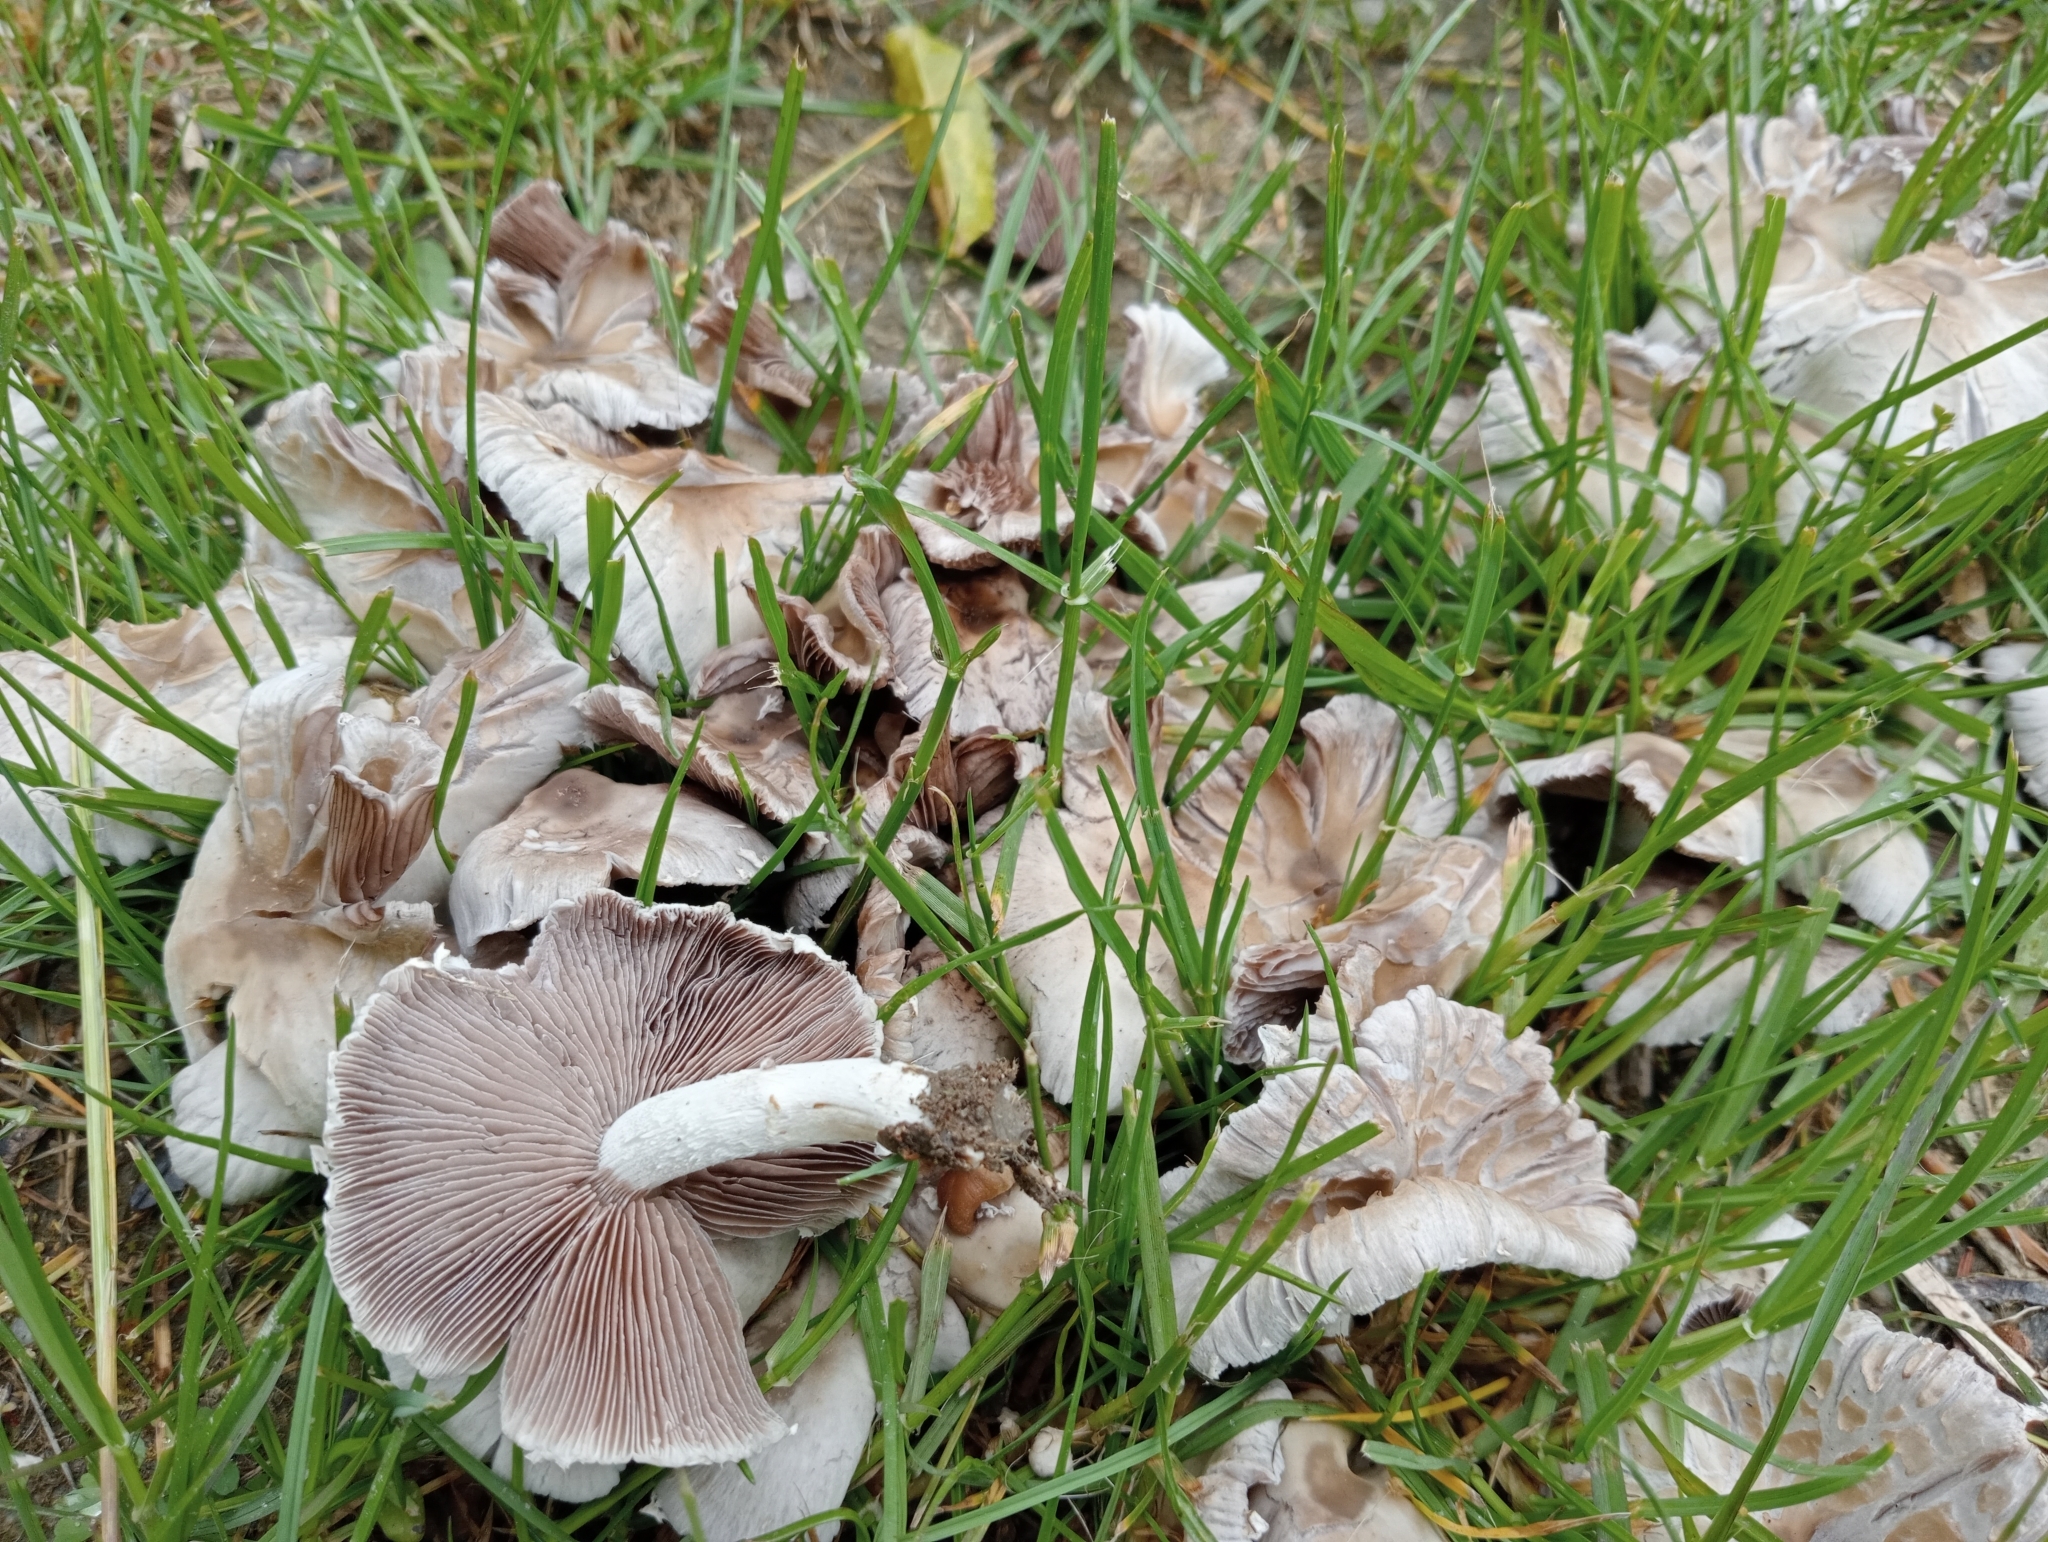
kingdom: Fungi
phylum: Basidiomycota
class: Agaricomycetes
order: Agaricales
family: Psathyrellaceae
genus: Candolleomyces
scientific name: Candolleomyces candolleanus
